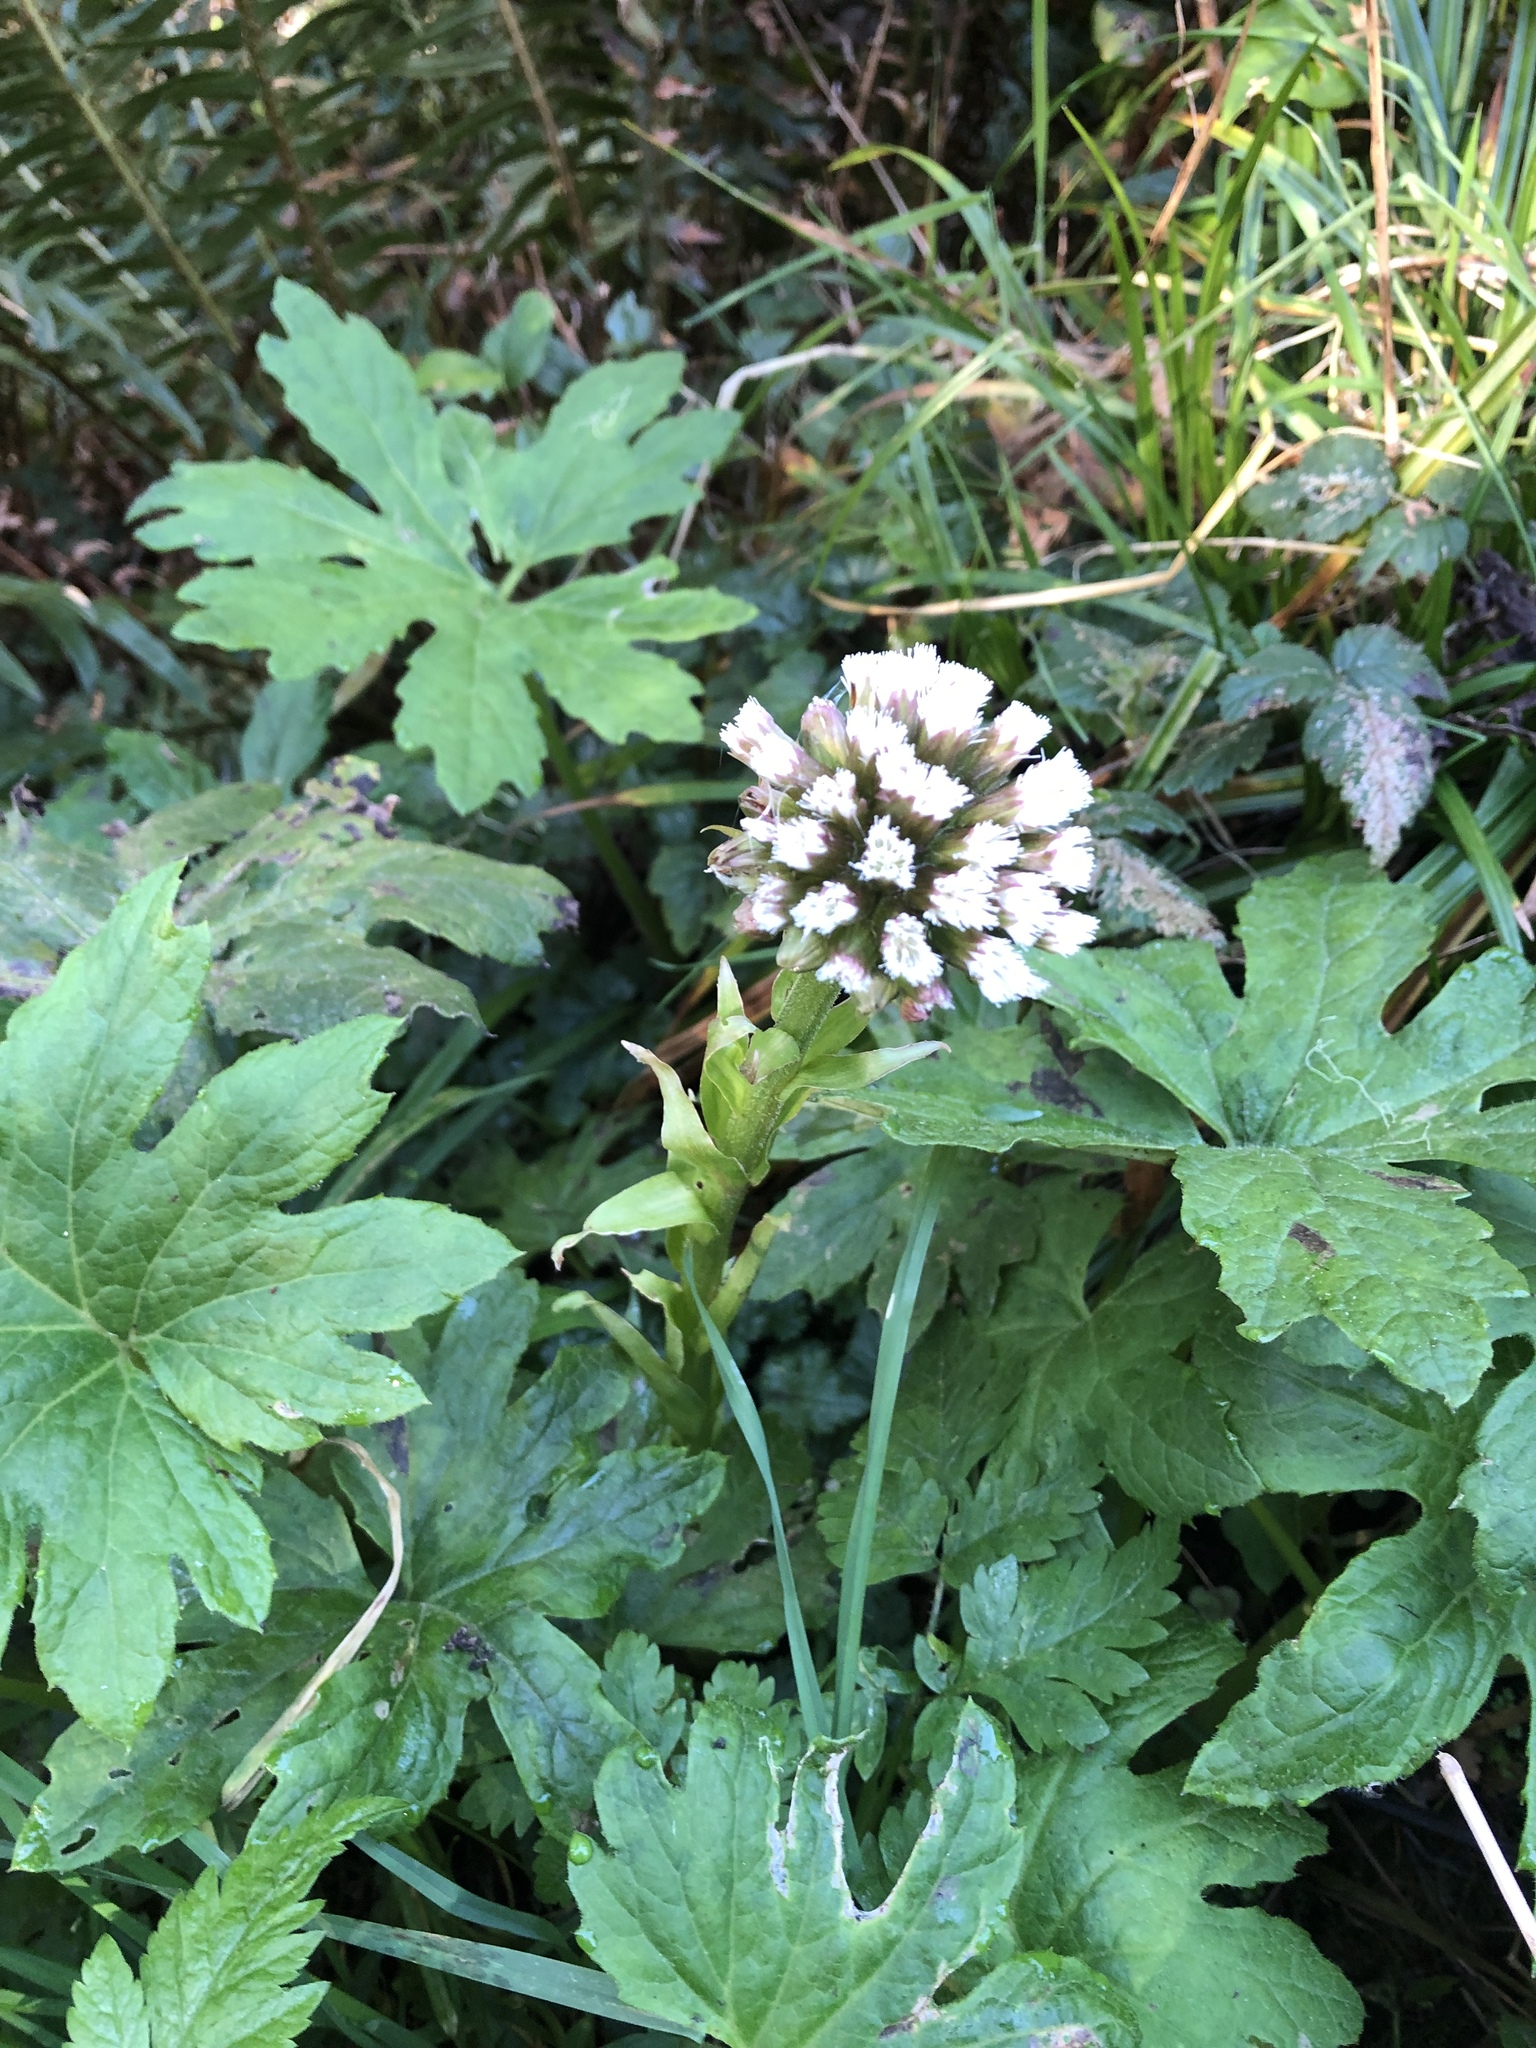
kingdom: Plantae
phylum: Tracheophyta
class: Magnoliopsida
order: Asterales
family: Asteraceae
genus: Petasites
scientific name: Petasites frigidus
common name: Arctic butterbur
